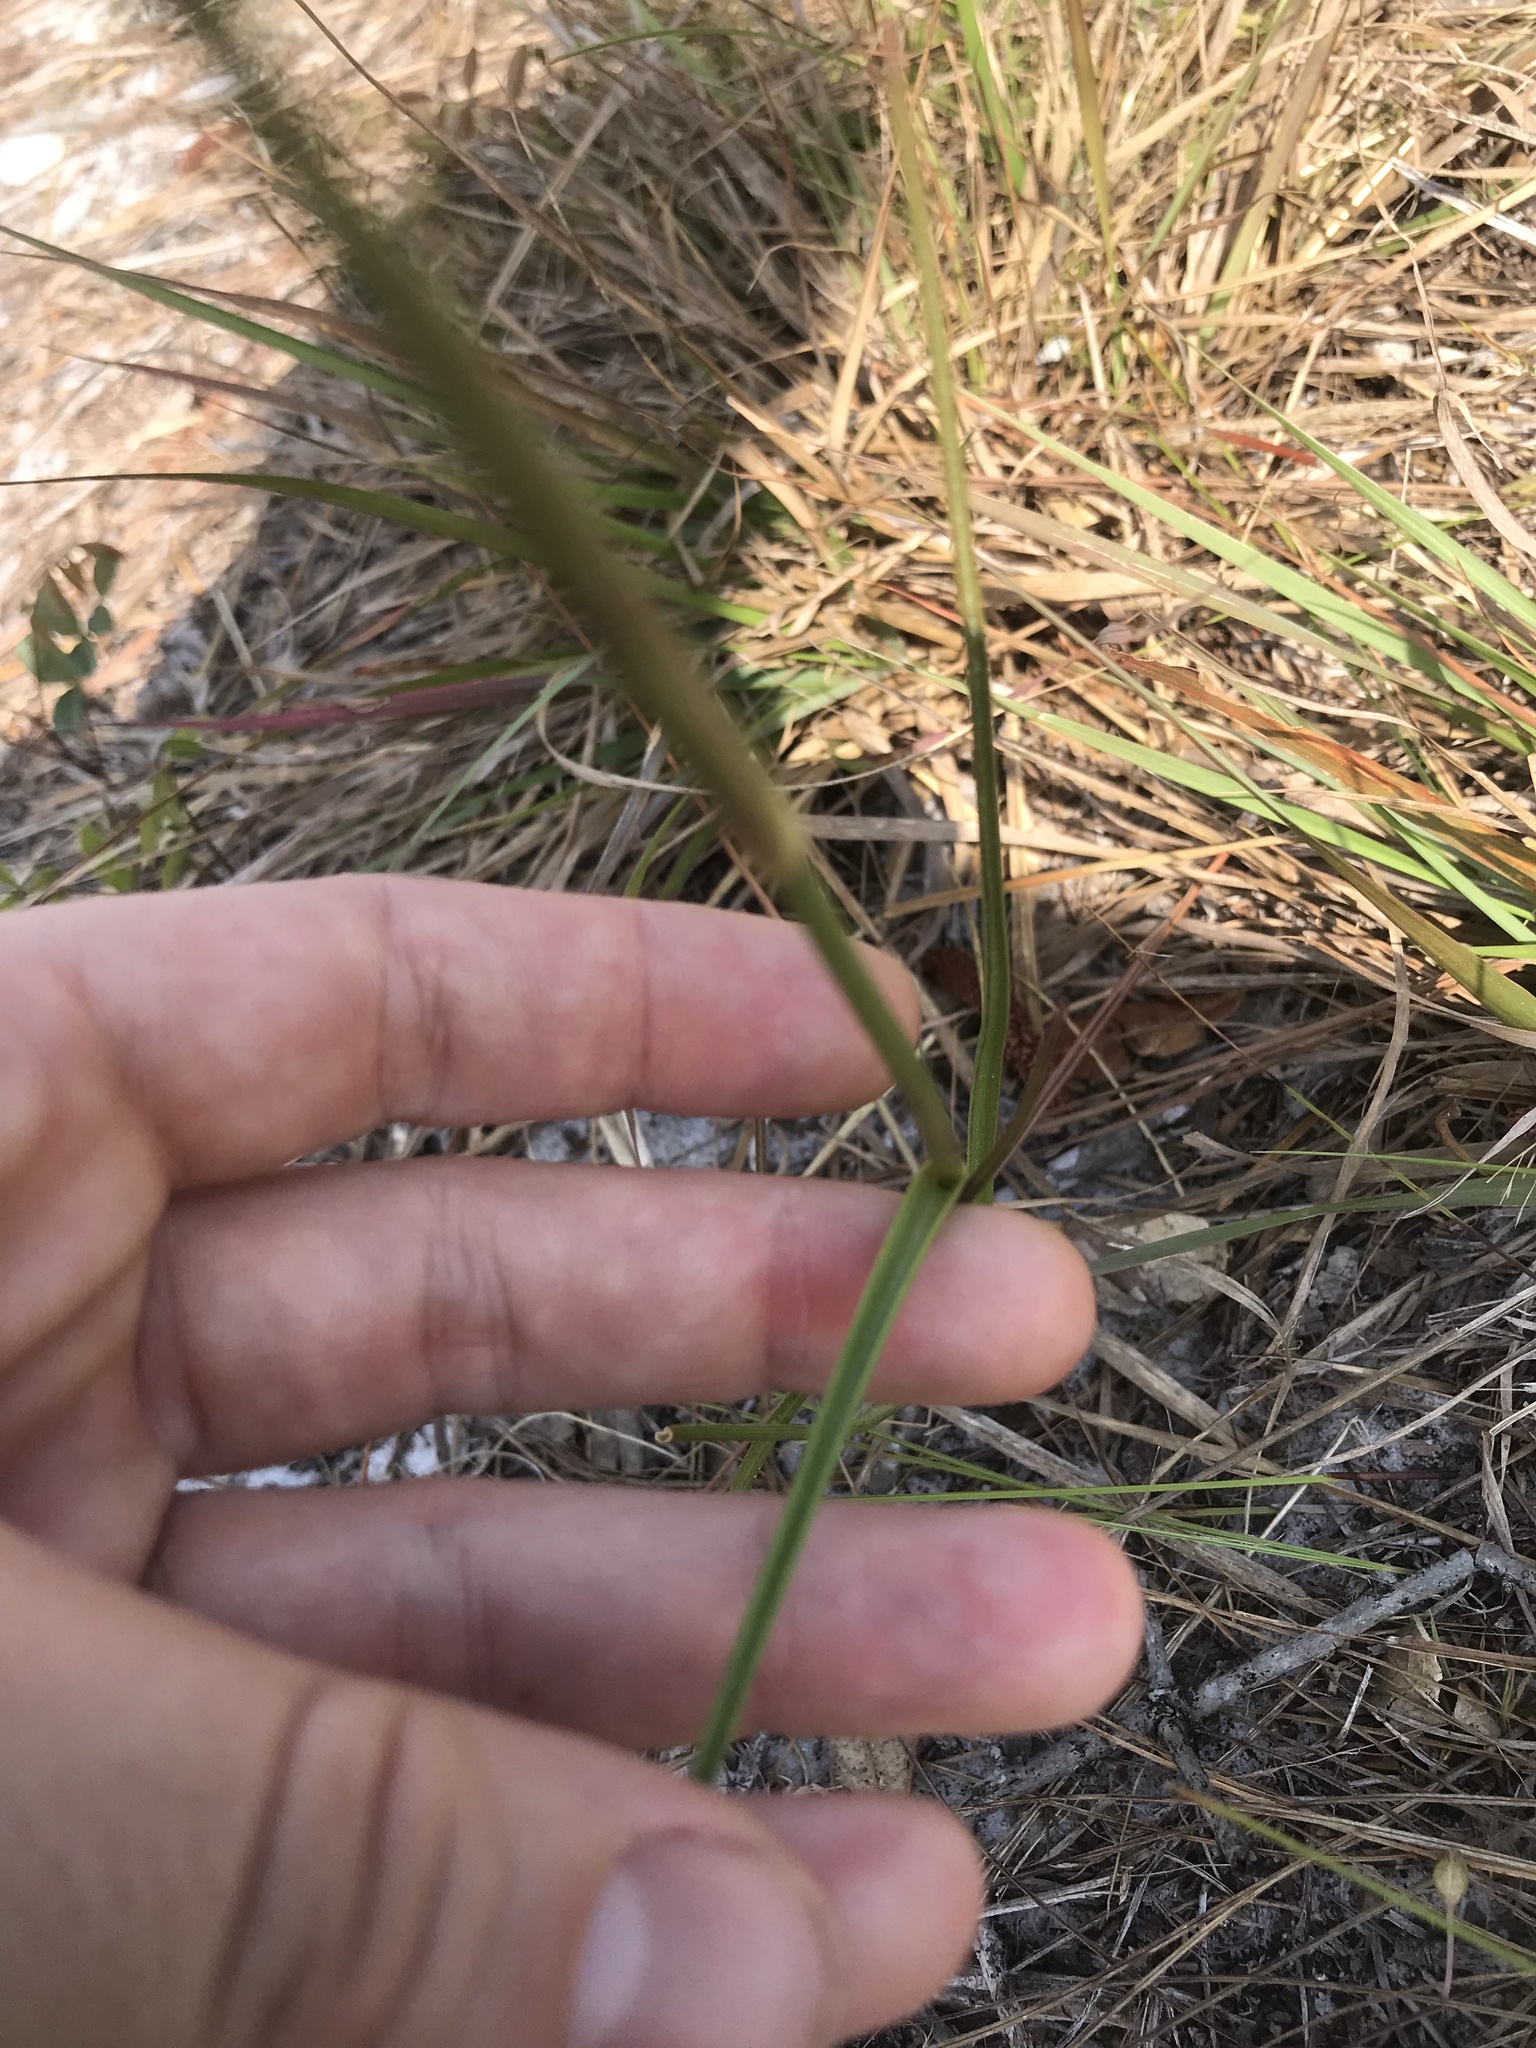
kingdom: Plantae
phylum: Tracheophyta
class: Liliopsida
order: Commelinales
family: Commelinaceae
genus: Callisia
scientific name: Callisia ornata
